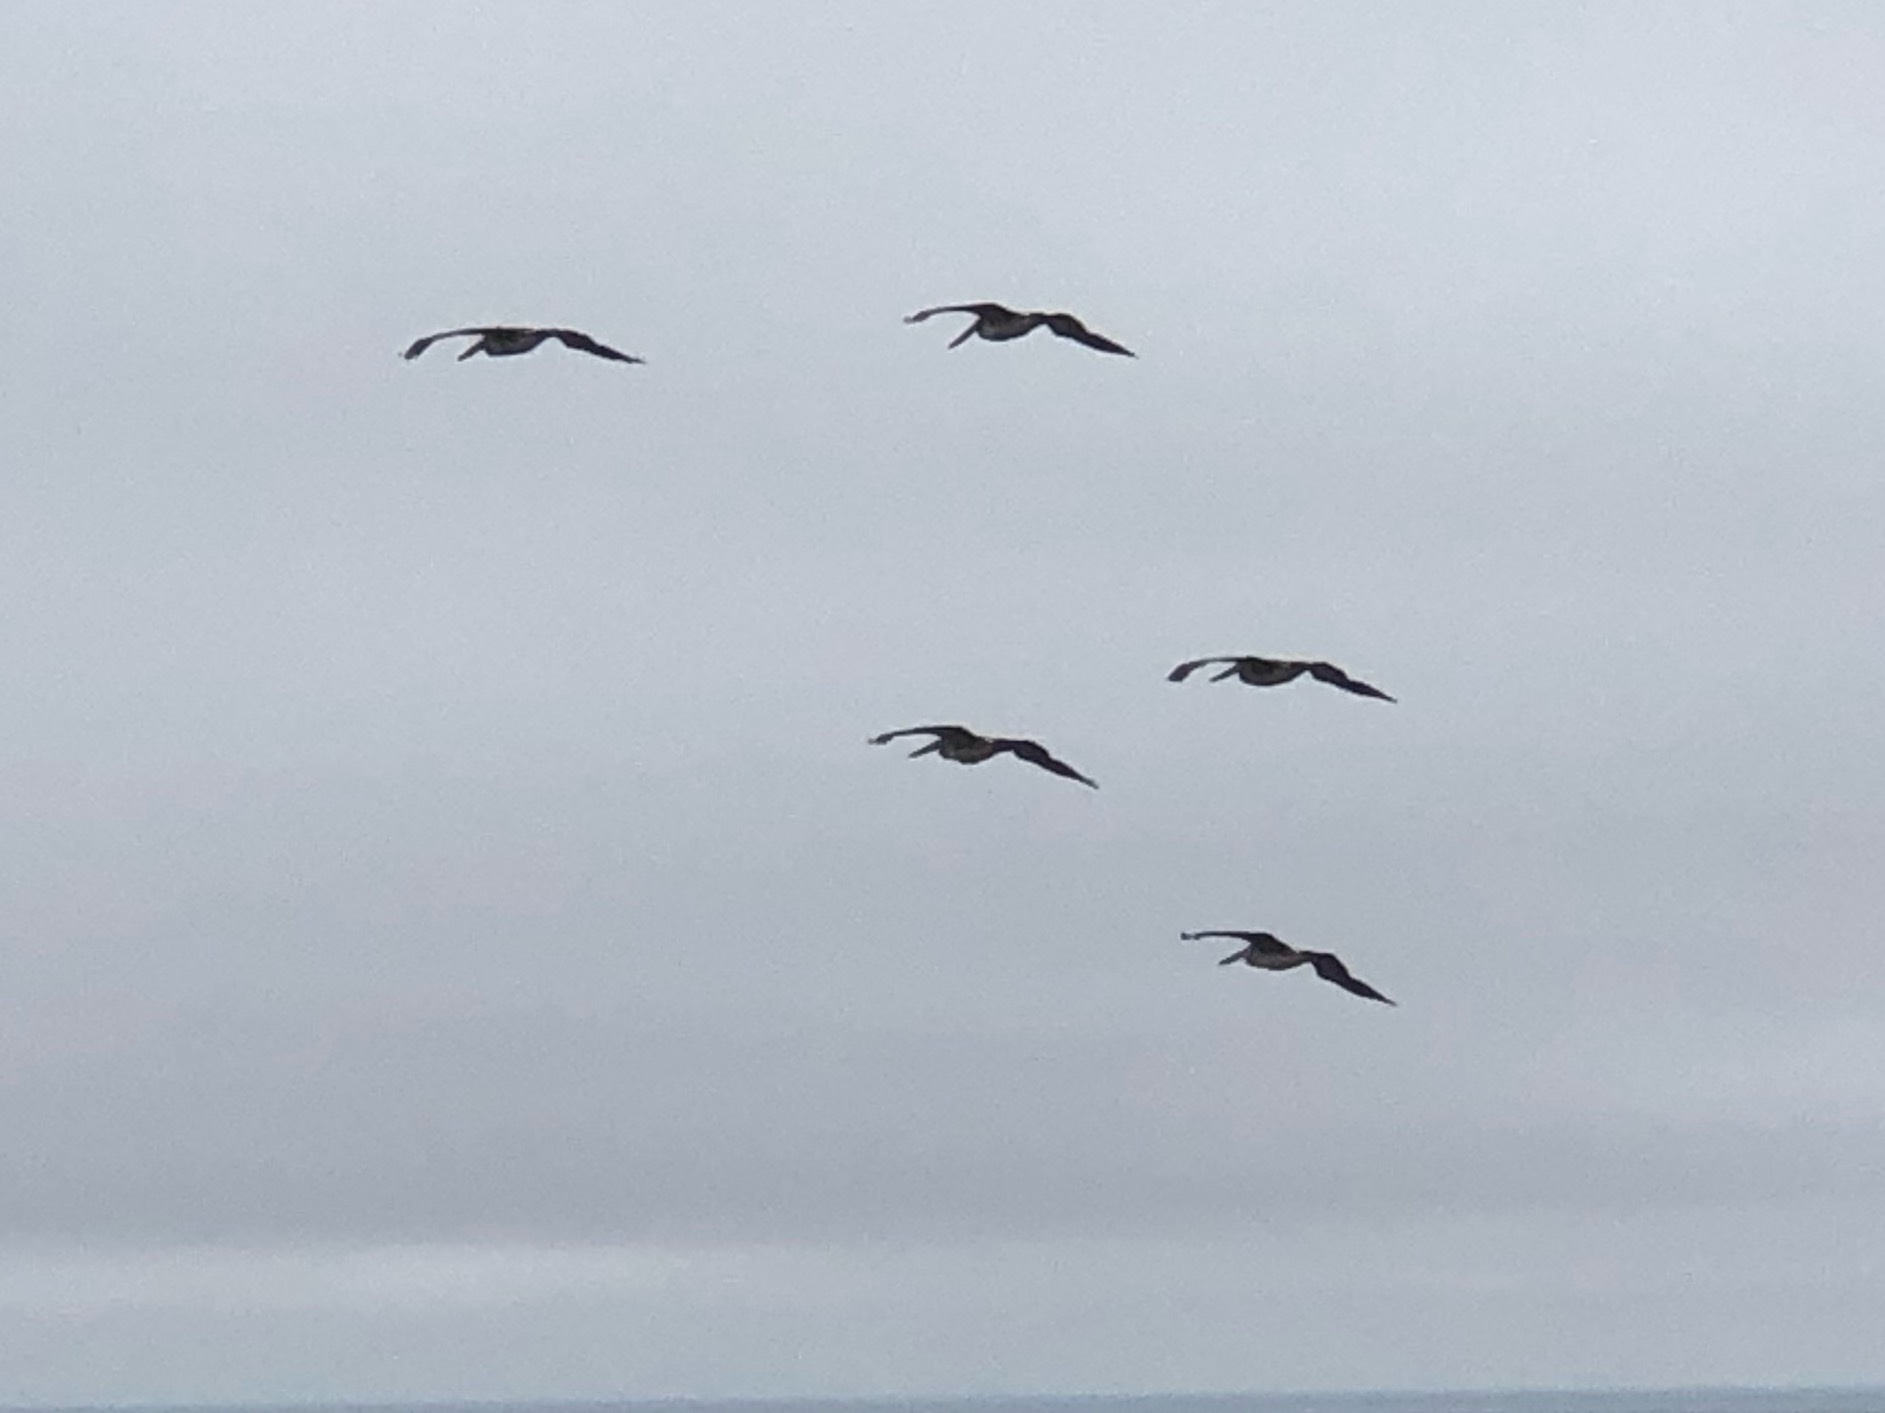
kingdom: Animalia
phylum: Chordata
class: Aves
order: Pelecaniformes
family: Pelecanidae
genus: Pelecanus
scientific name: Pelecanus occidentalis
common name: Brown pelican
